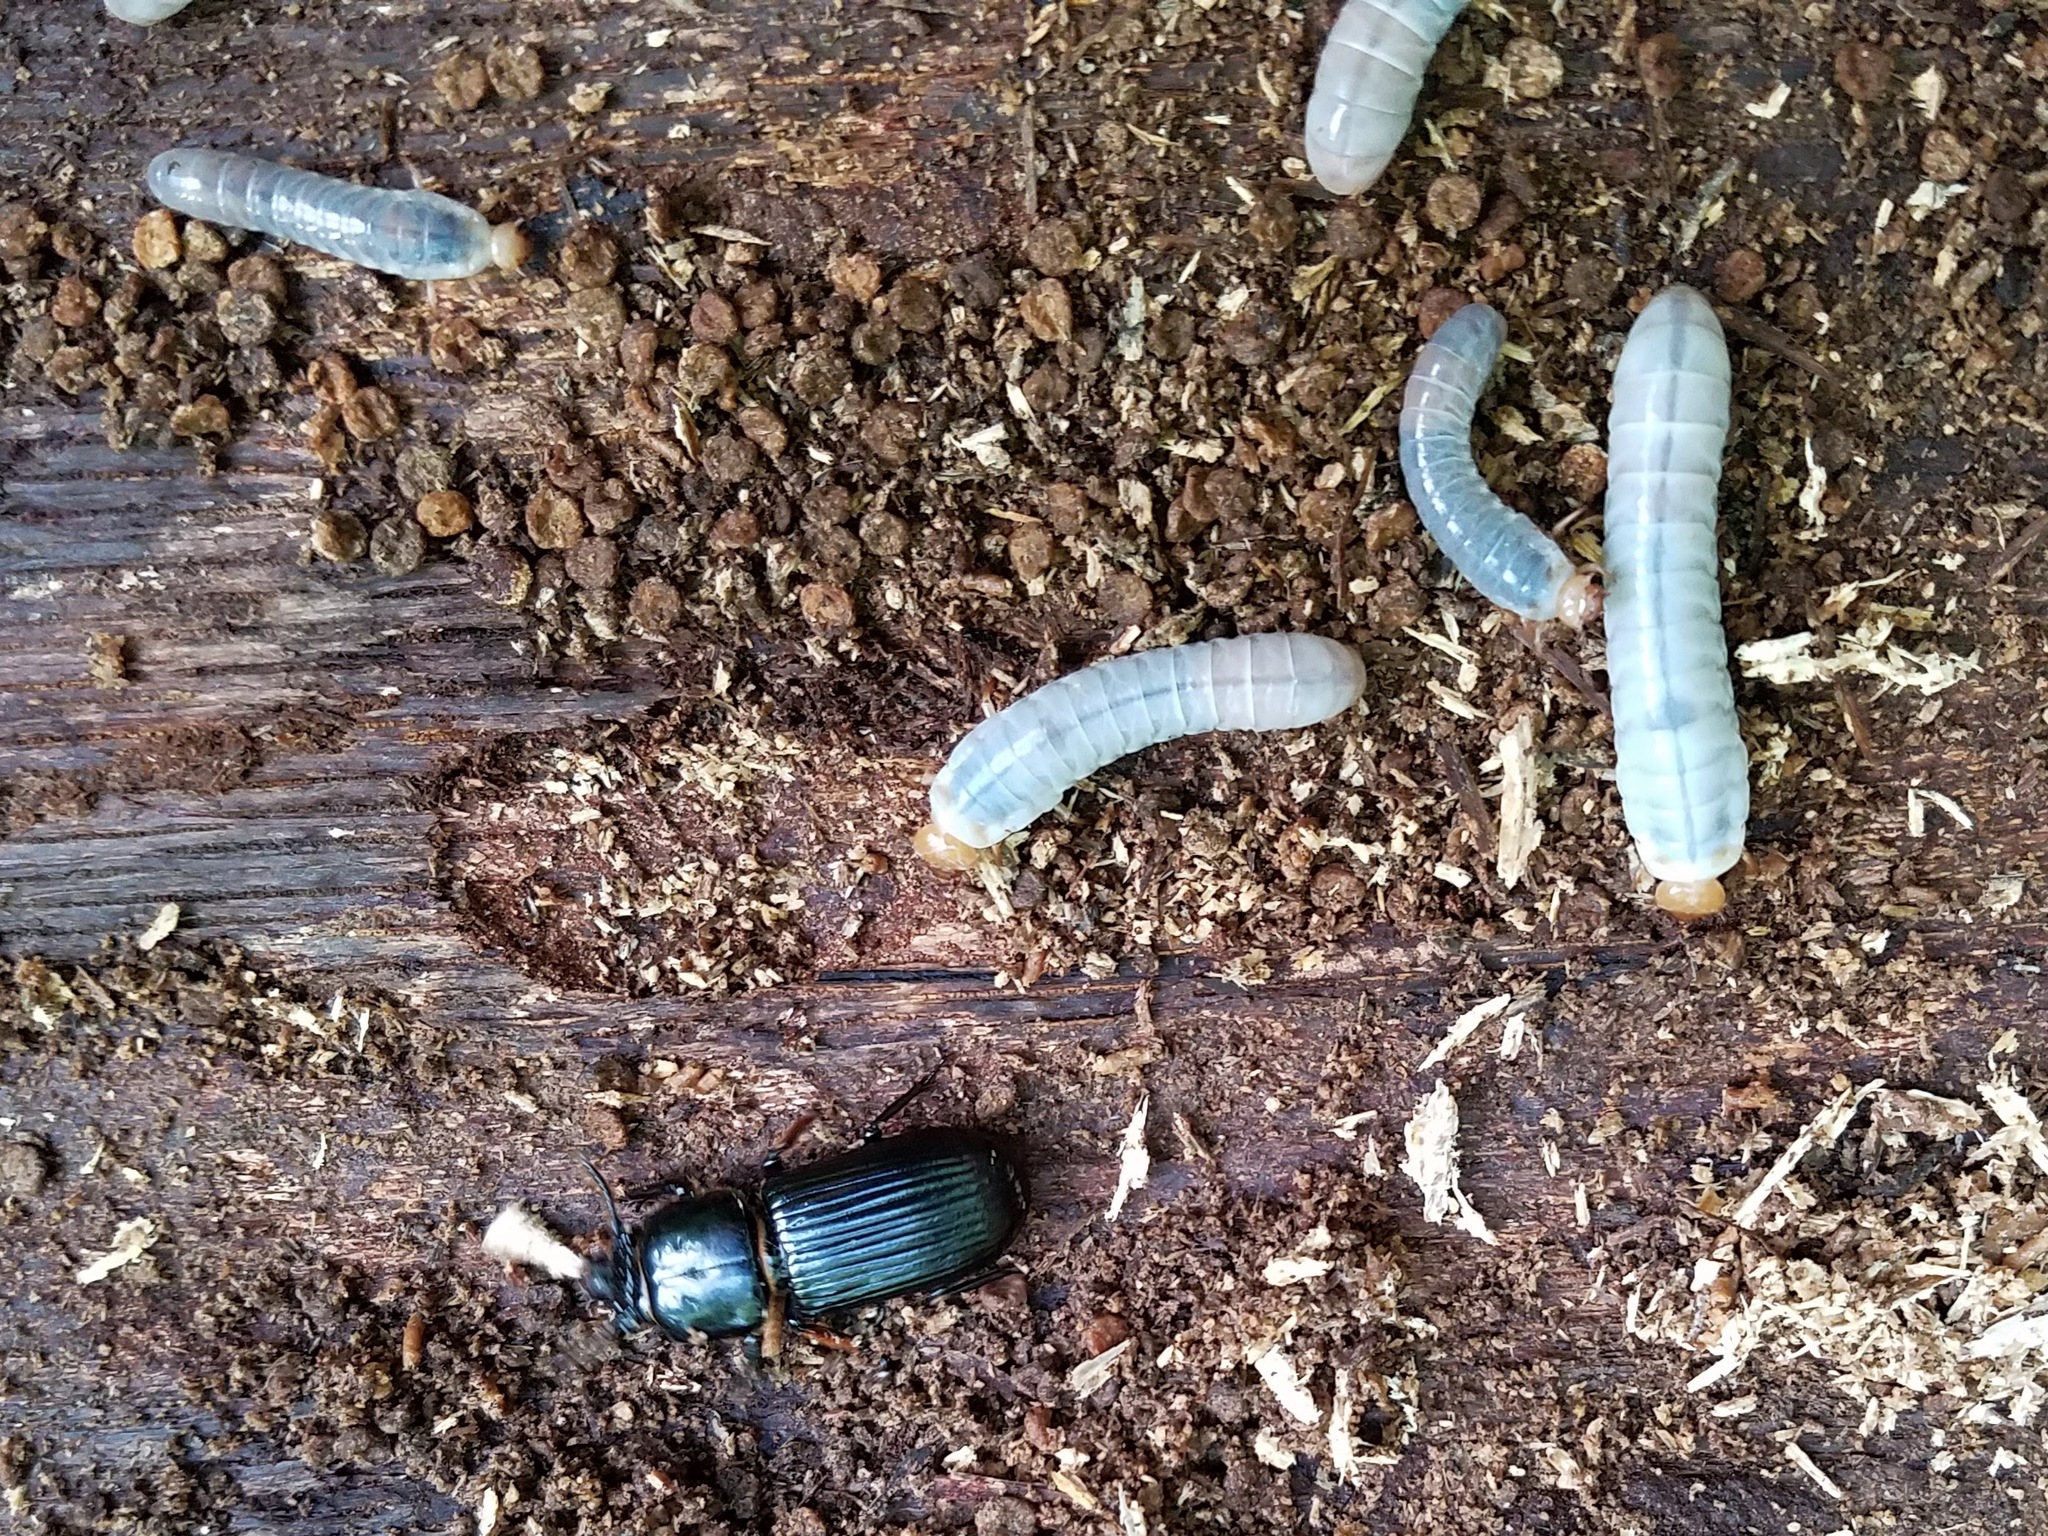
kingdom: Animalia
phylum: Arthropoda
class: Insecta
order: Coleoptera
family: Passalidae
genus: Odontotaenius
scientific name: Odontotaenius disjunctus
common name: Patent leather beetle
